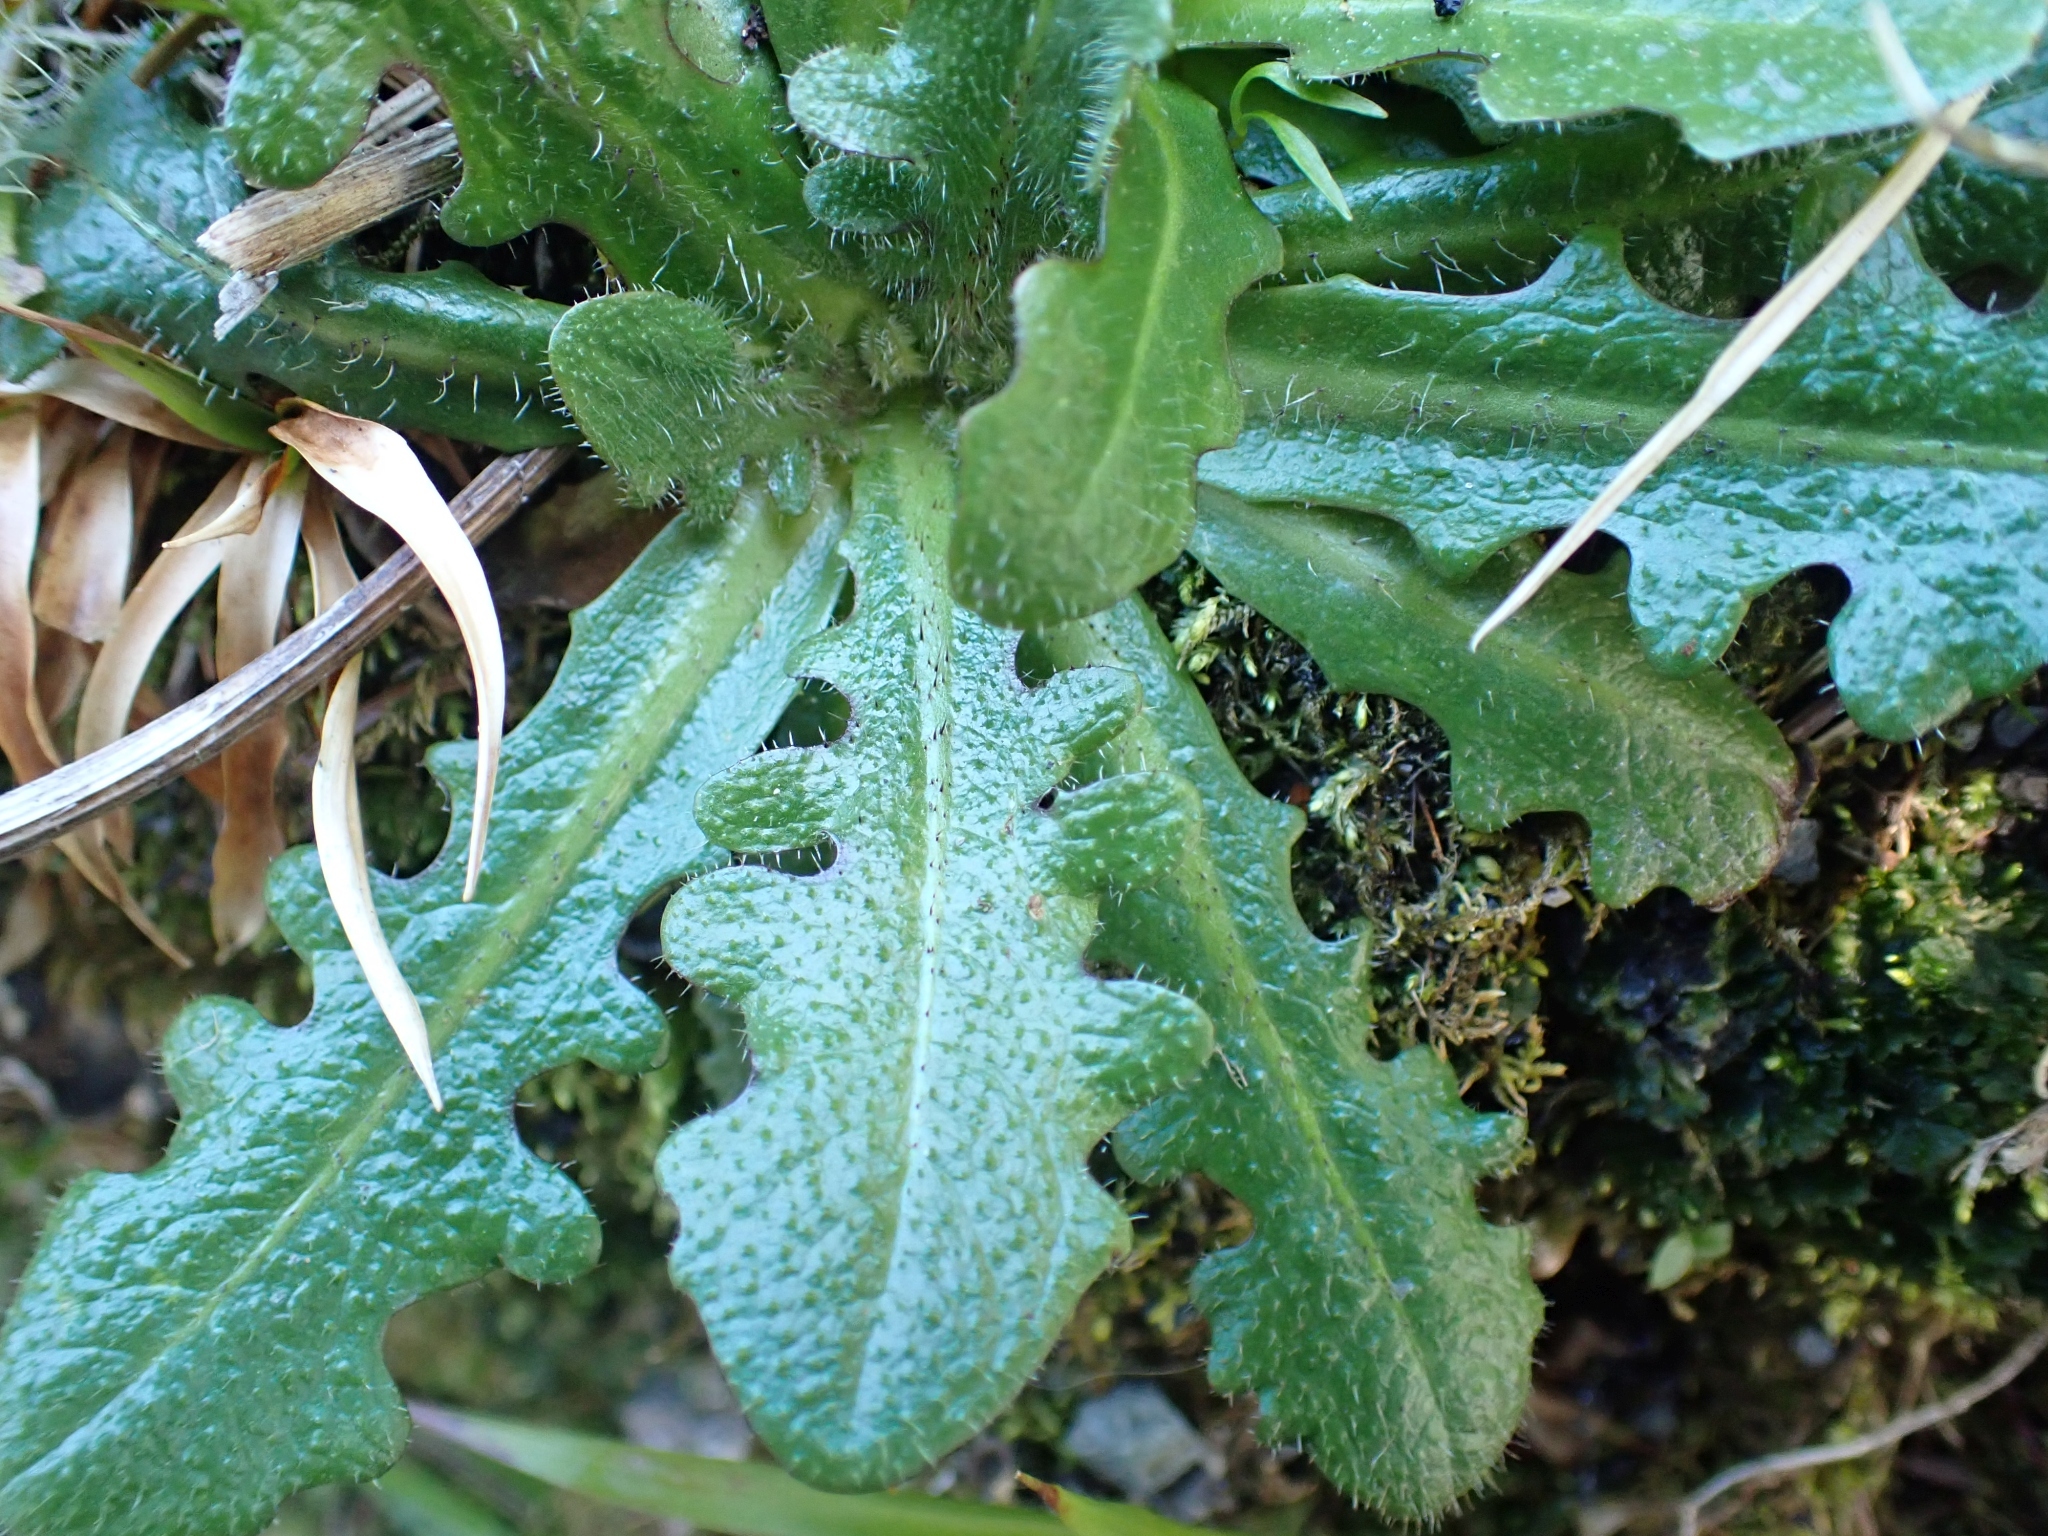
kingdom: Plantae
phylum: Tracheophyta
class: Magnoliopsida
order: Asterales
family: Asteraceae
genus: Hypochaeris
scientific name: Hypochaeris radicata
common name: Flatweed
